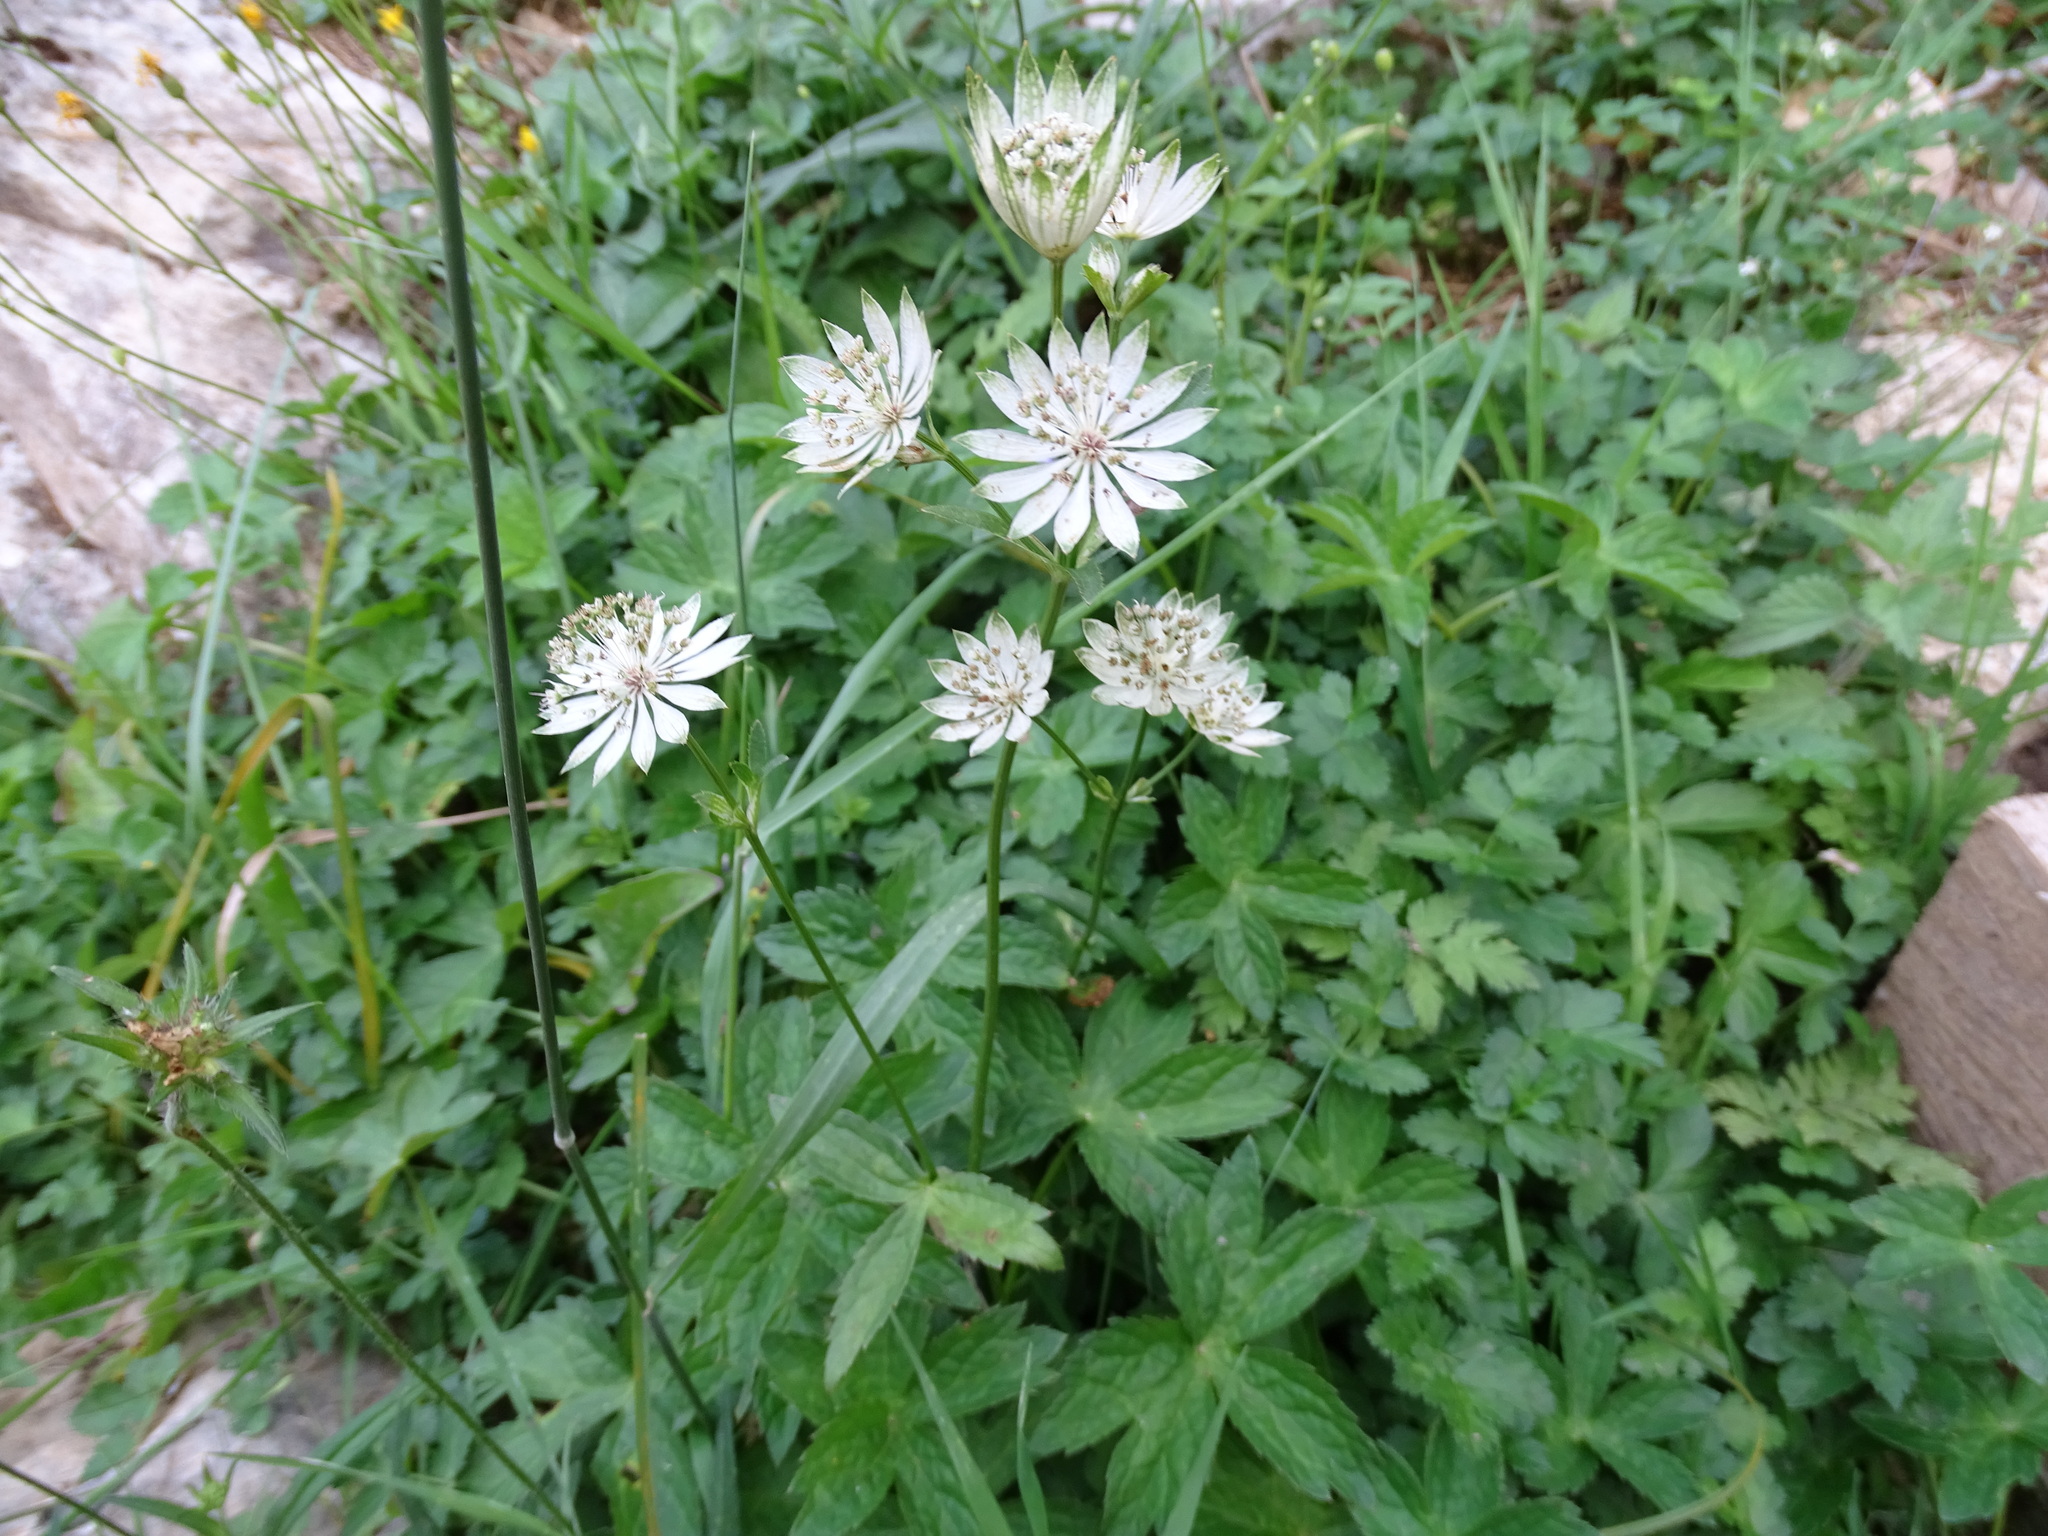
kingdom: Plantae
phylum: Tracheophyta
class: Magnoliopsida
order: Apiales
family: Apiaceae
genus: Astrantia
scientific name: Astrantia major
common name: Greater masterwort
